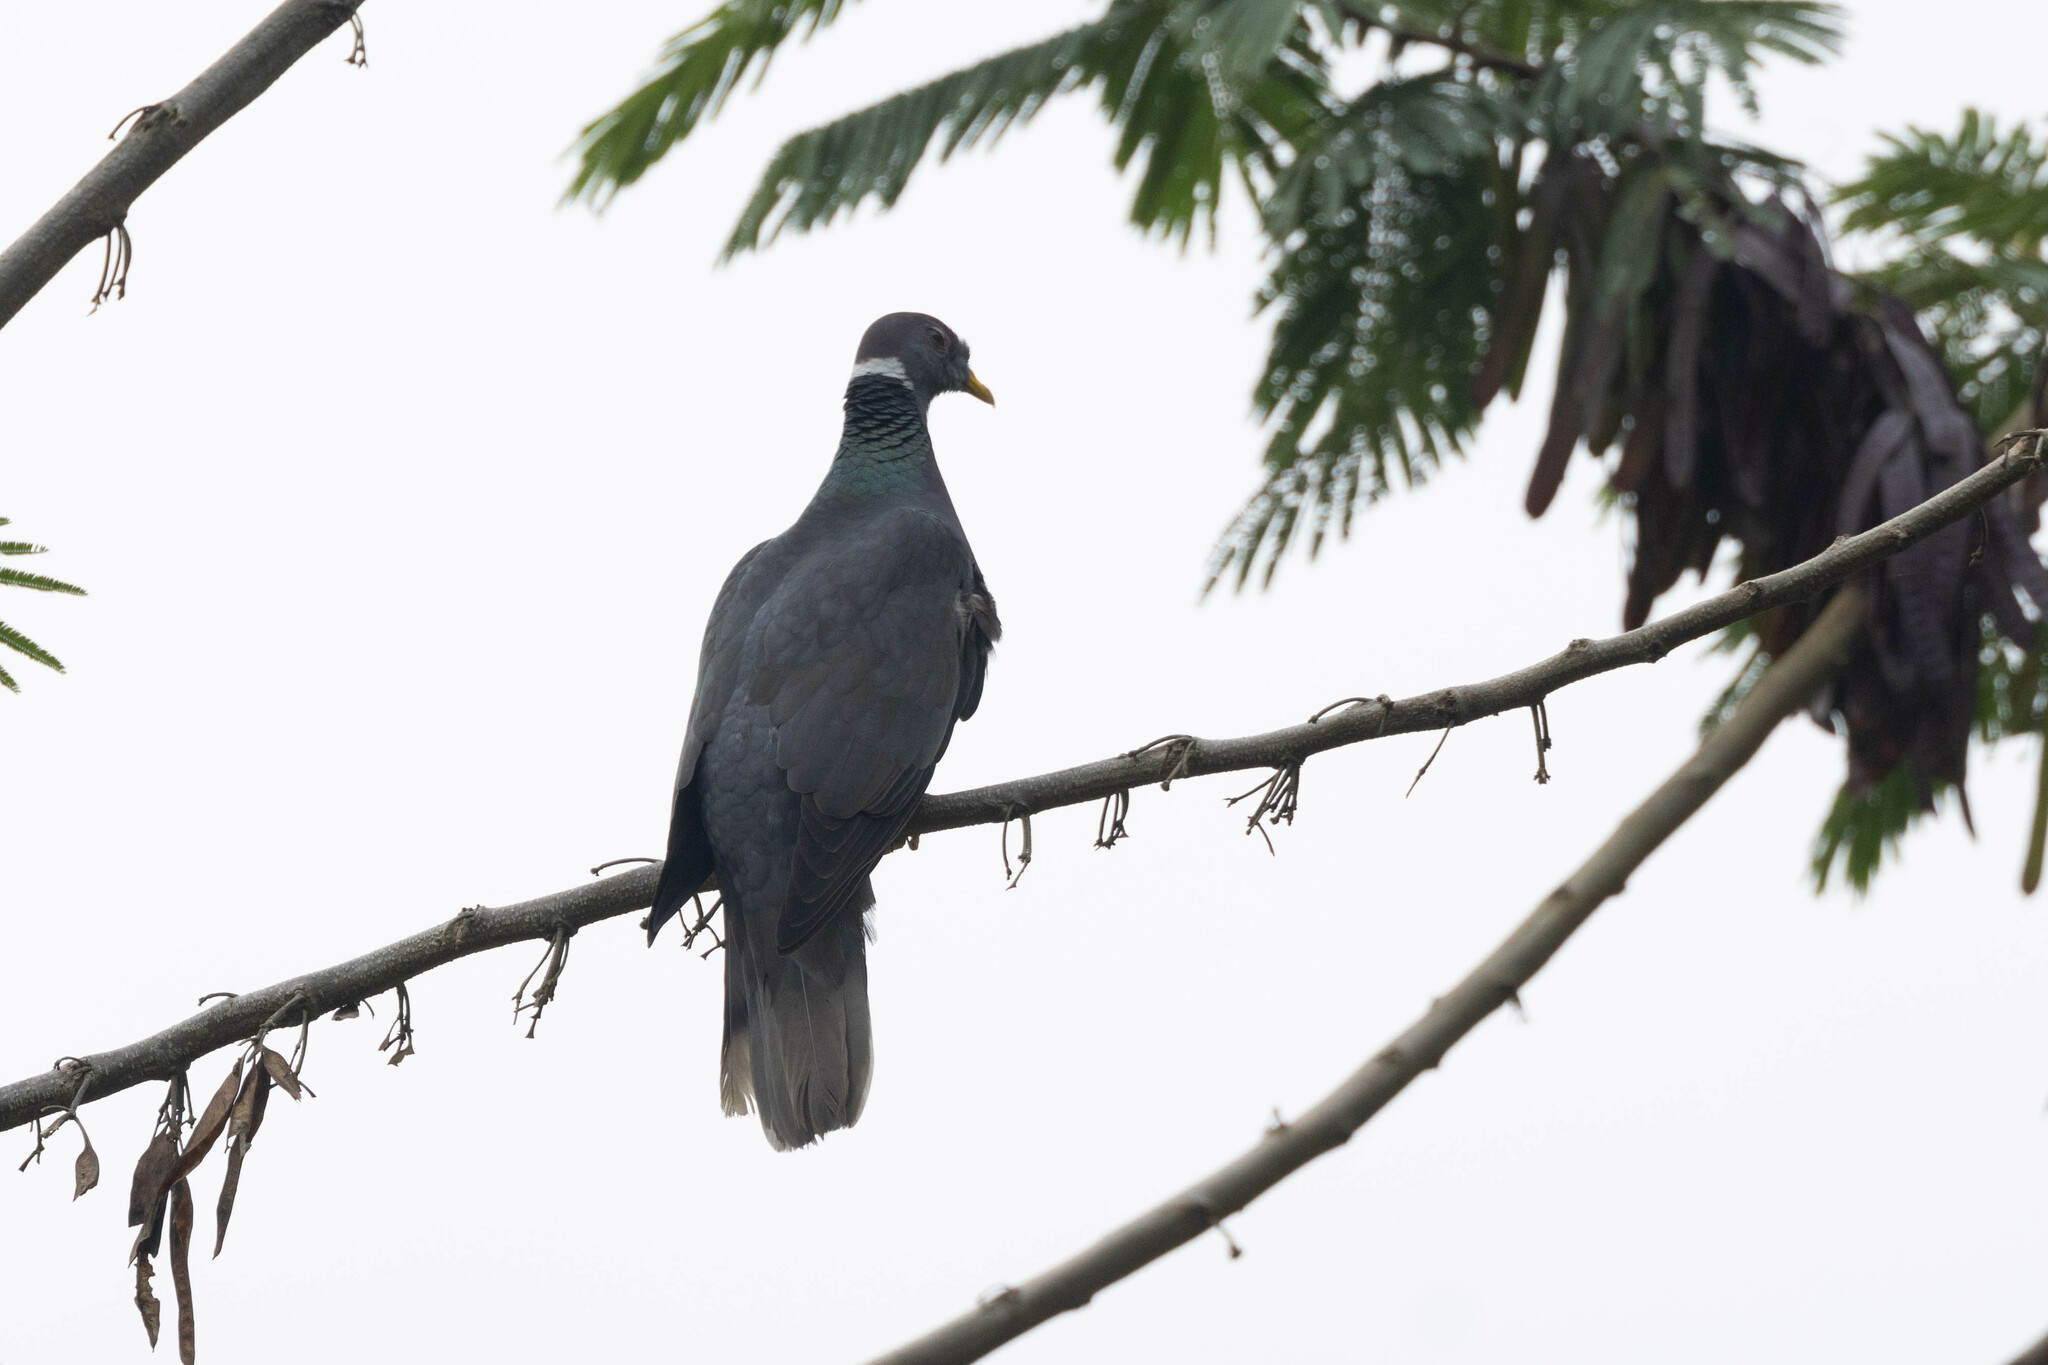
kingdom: Animalia
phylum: Chordata
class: Aves
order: Columbiformes
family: Columbidae
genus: Patagioenas
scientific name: Patagioenas fasciata
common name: Band-tailed pigeon
